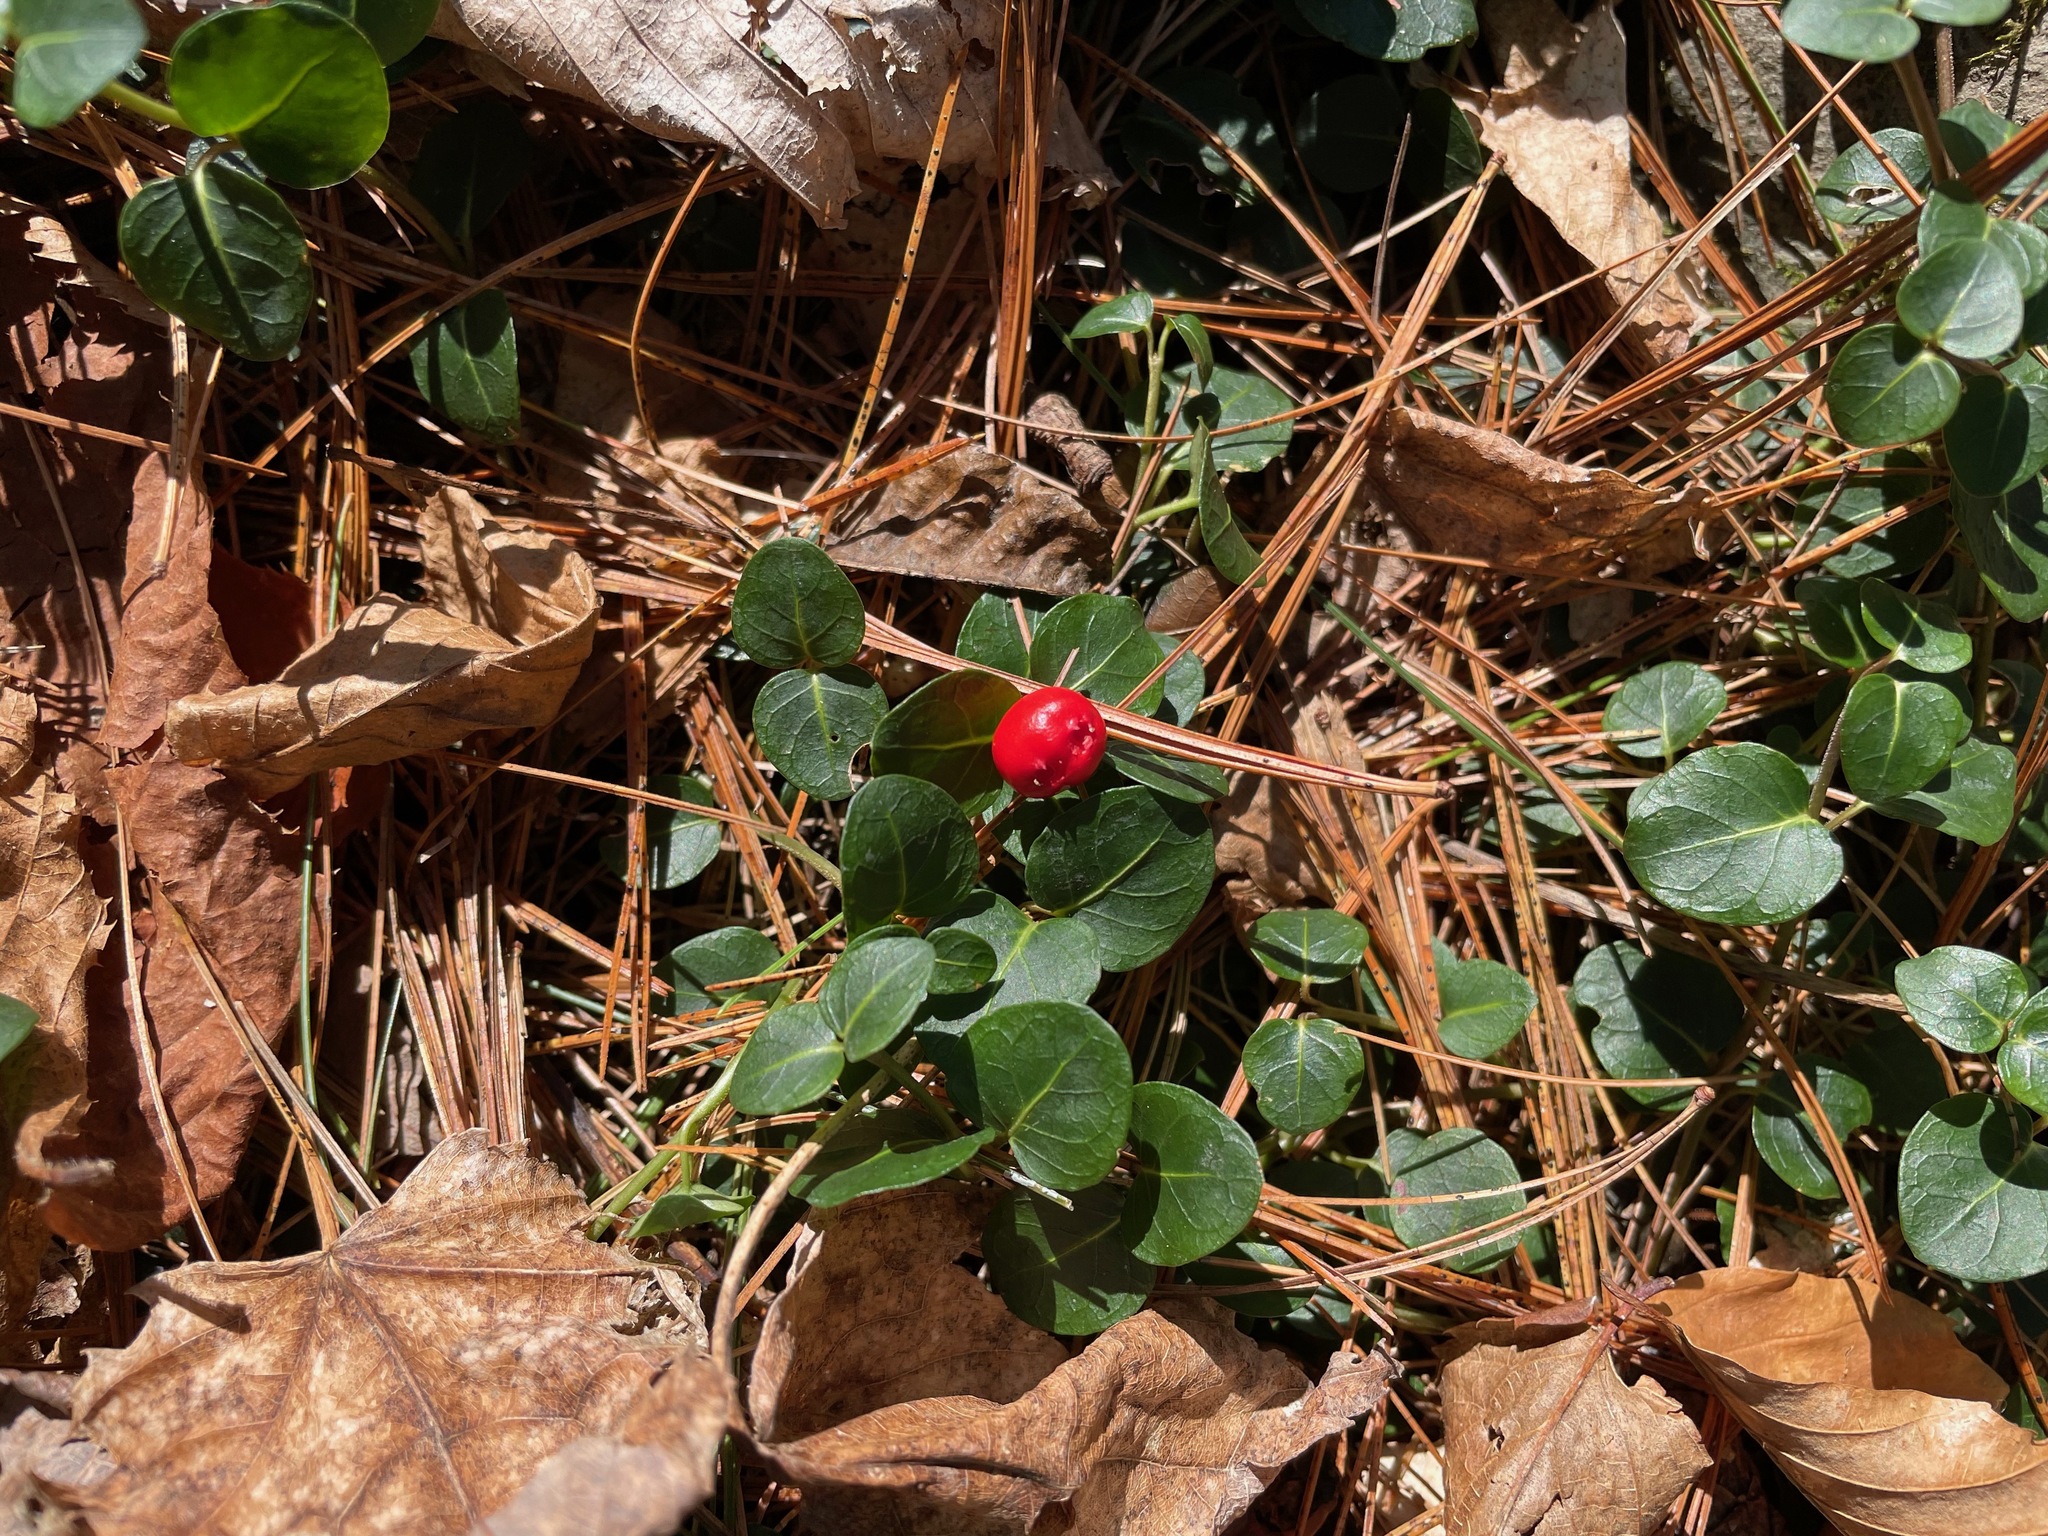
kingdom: Plantae
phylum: Tracheophyta
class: Magnoliopsida
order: Gentianales
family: Rubiaceae
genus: Mitchella
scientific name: Mitchella repens
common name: Partridge-berry
